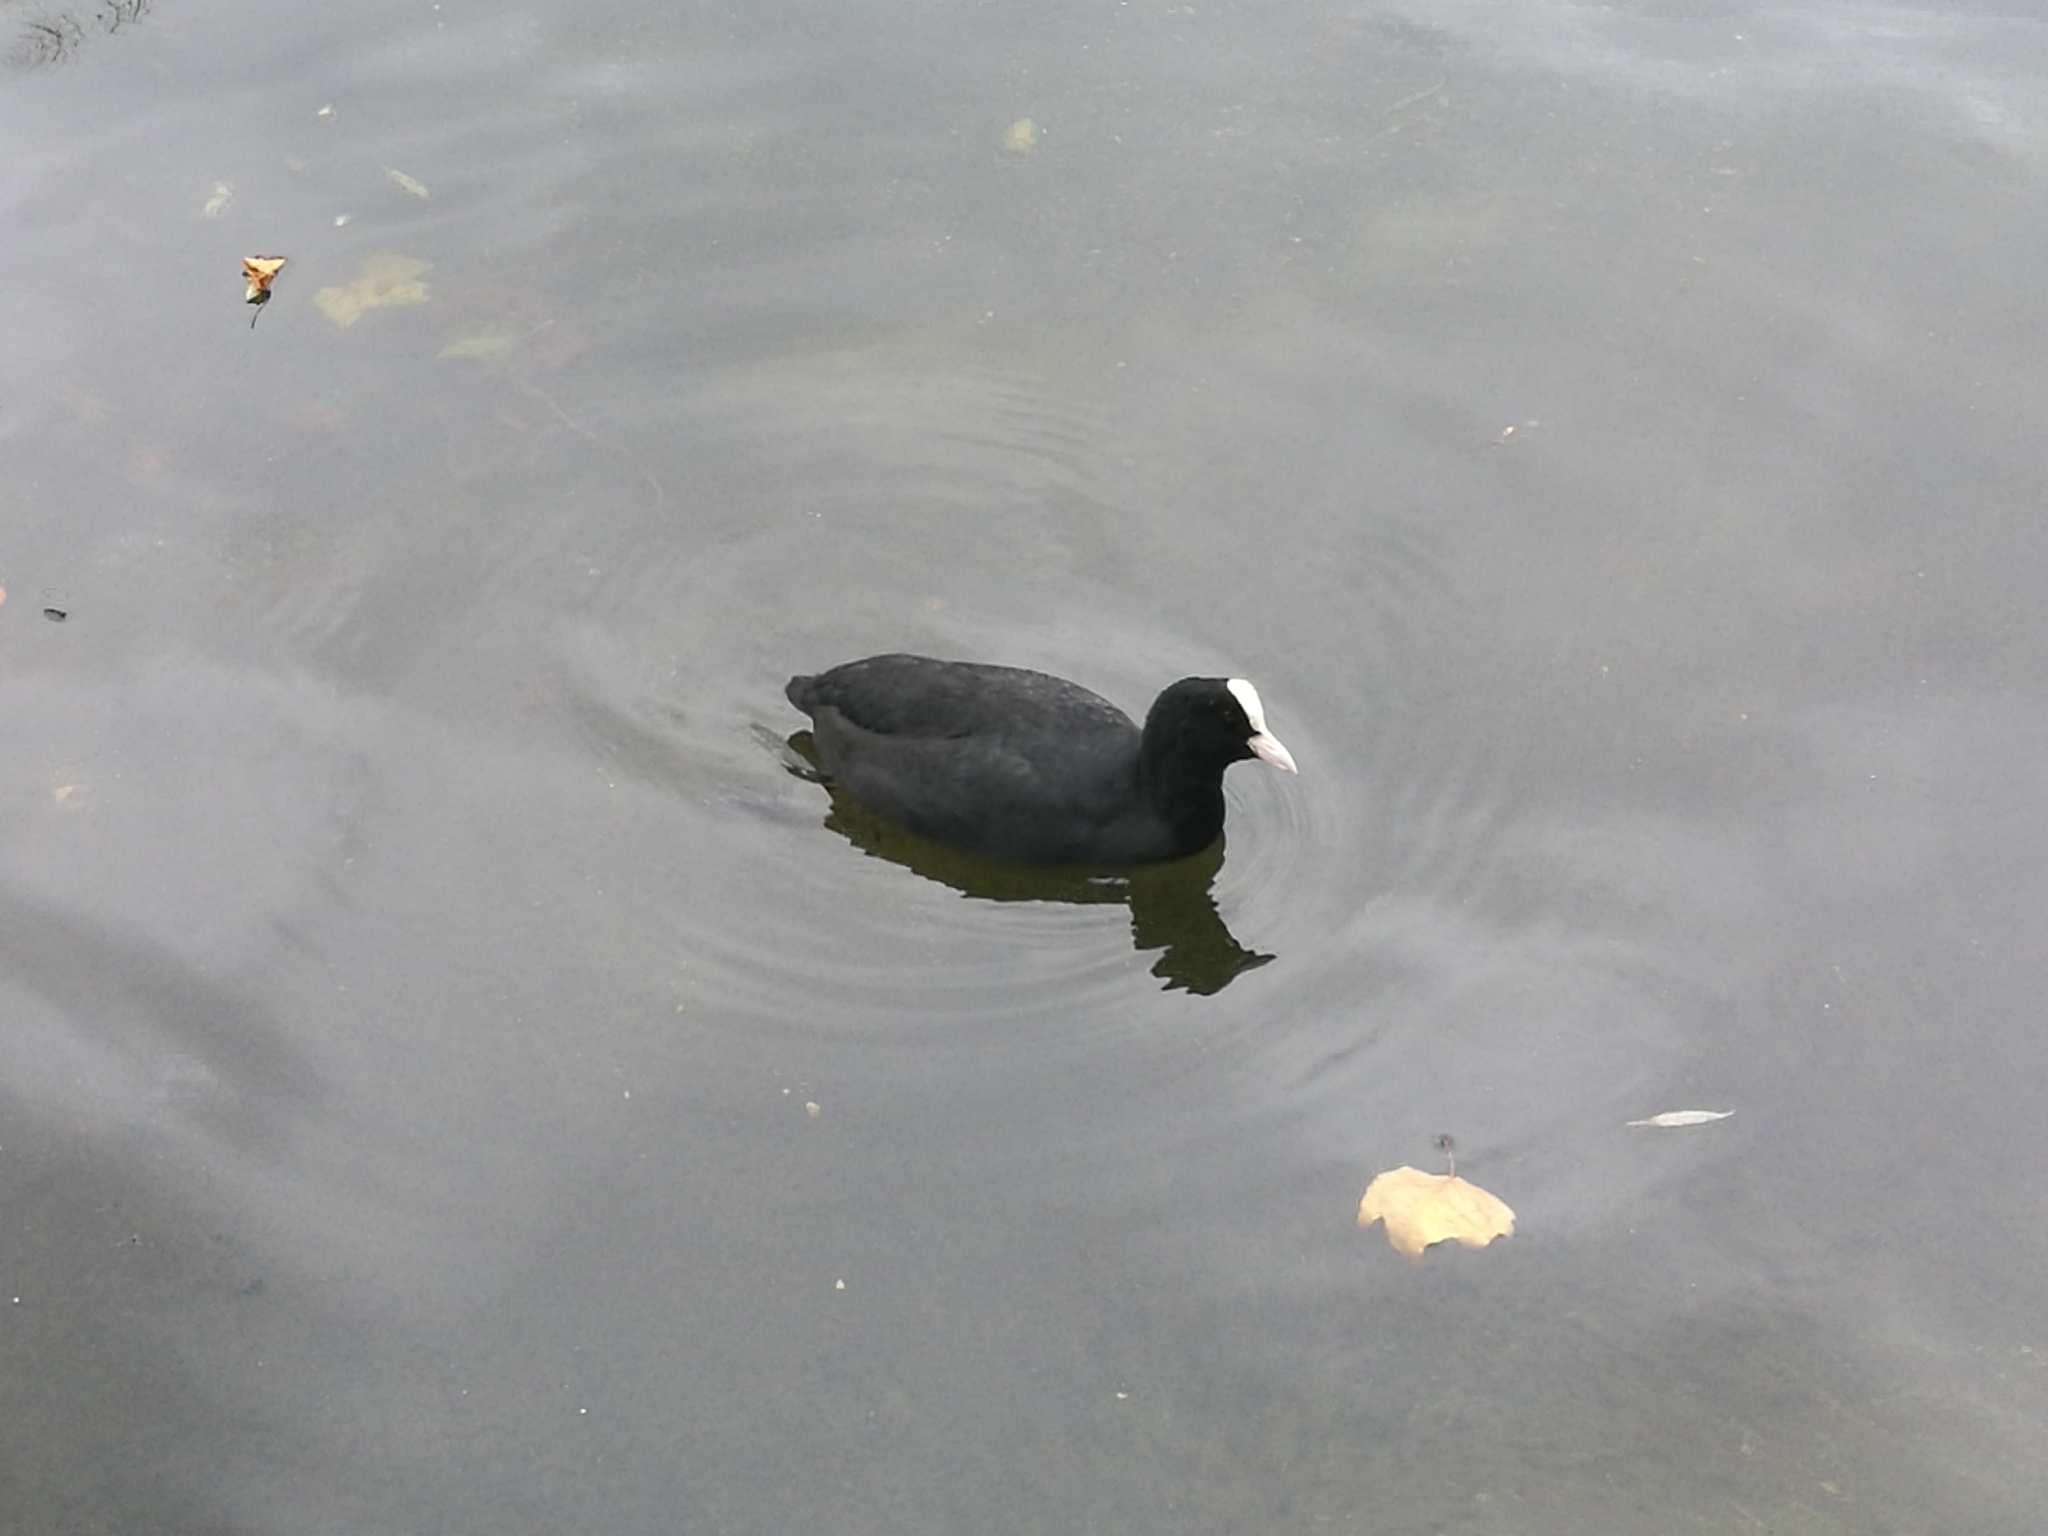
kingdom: Animalia
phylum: Chordata
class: Aves
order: Gruiformes
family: Rallidae
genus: Fulica
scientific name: Fulica atra
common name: Eurasian coot
